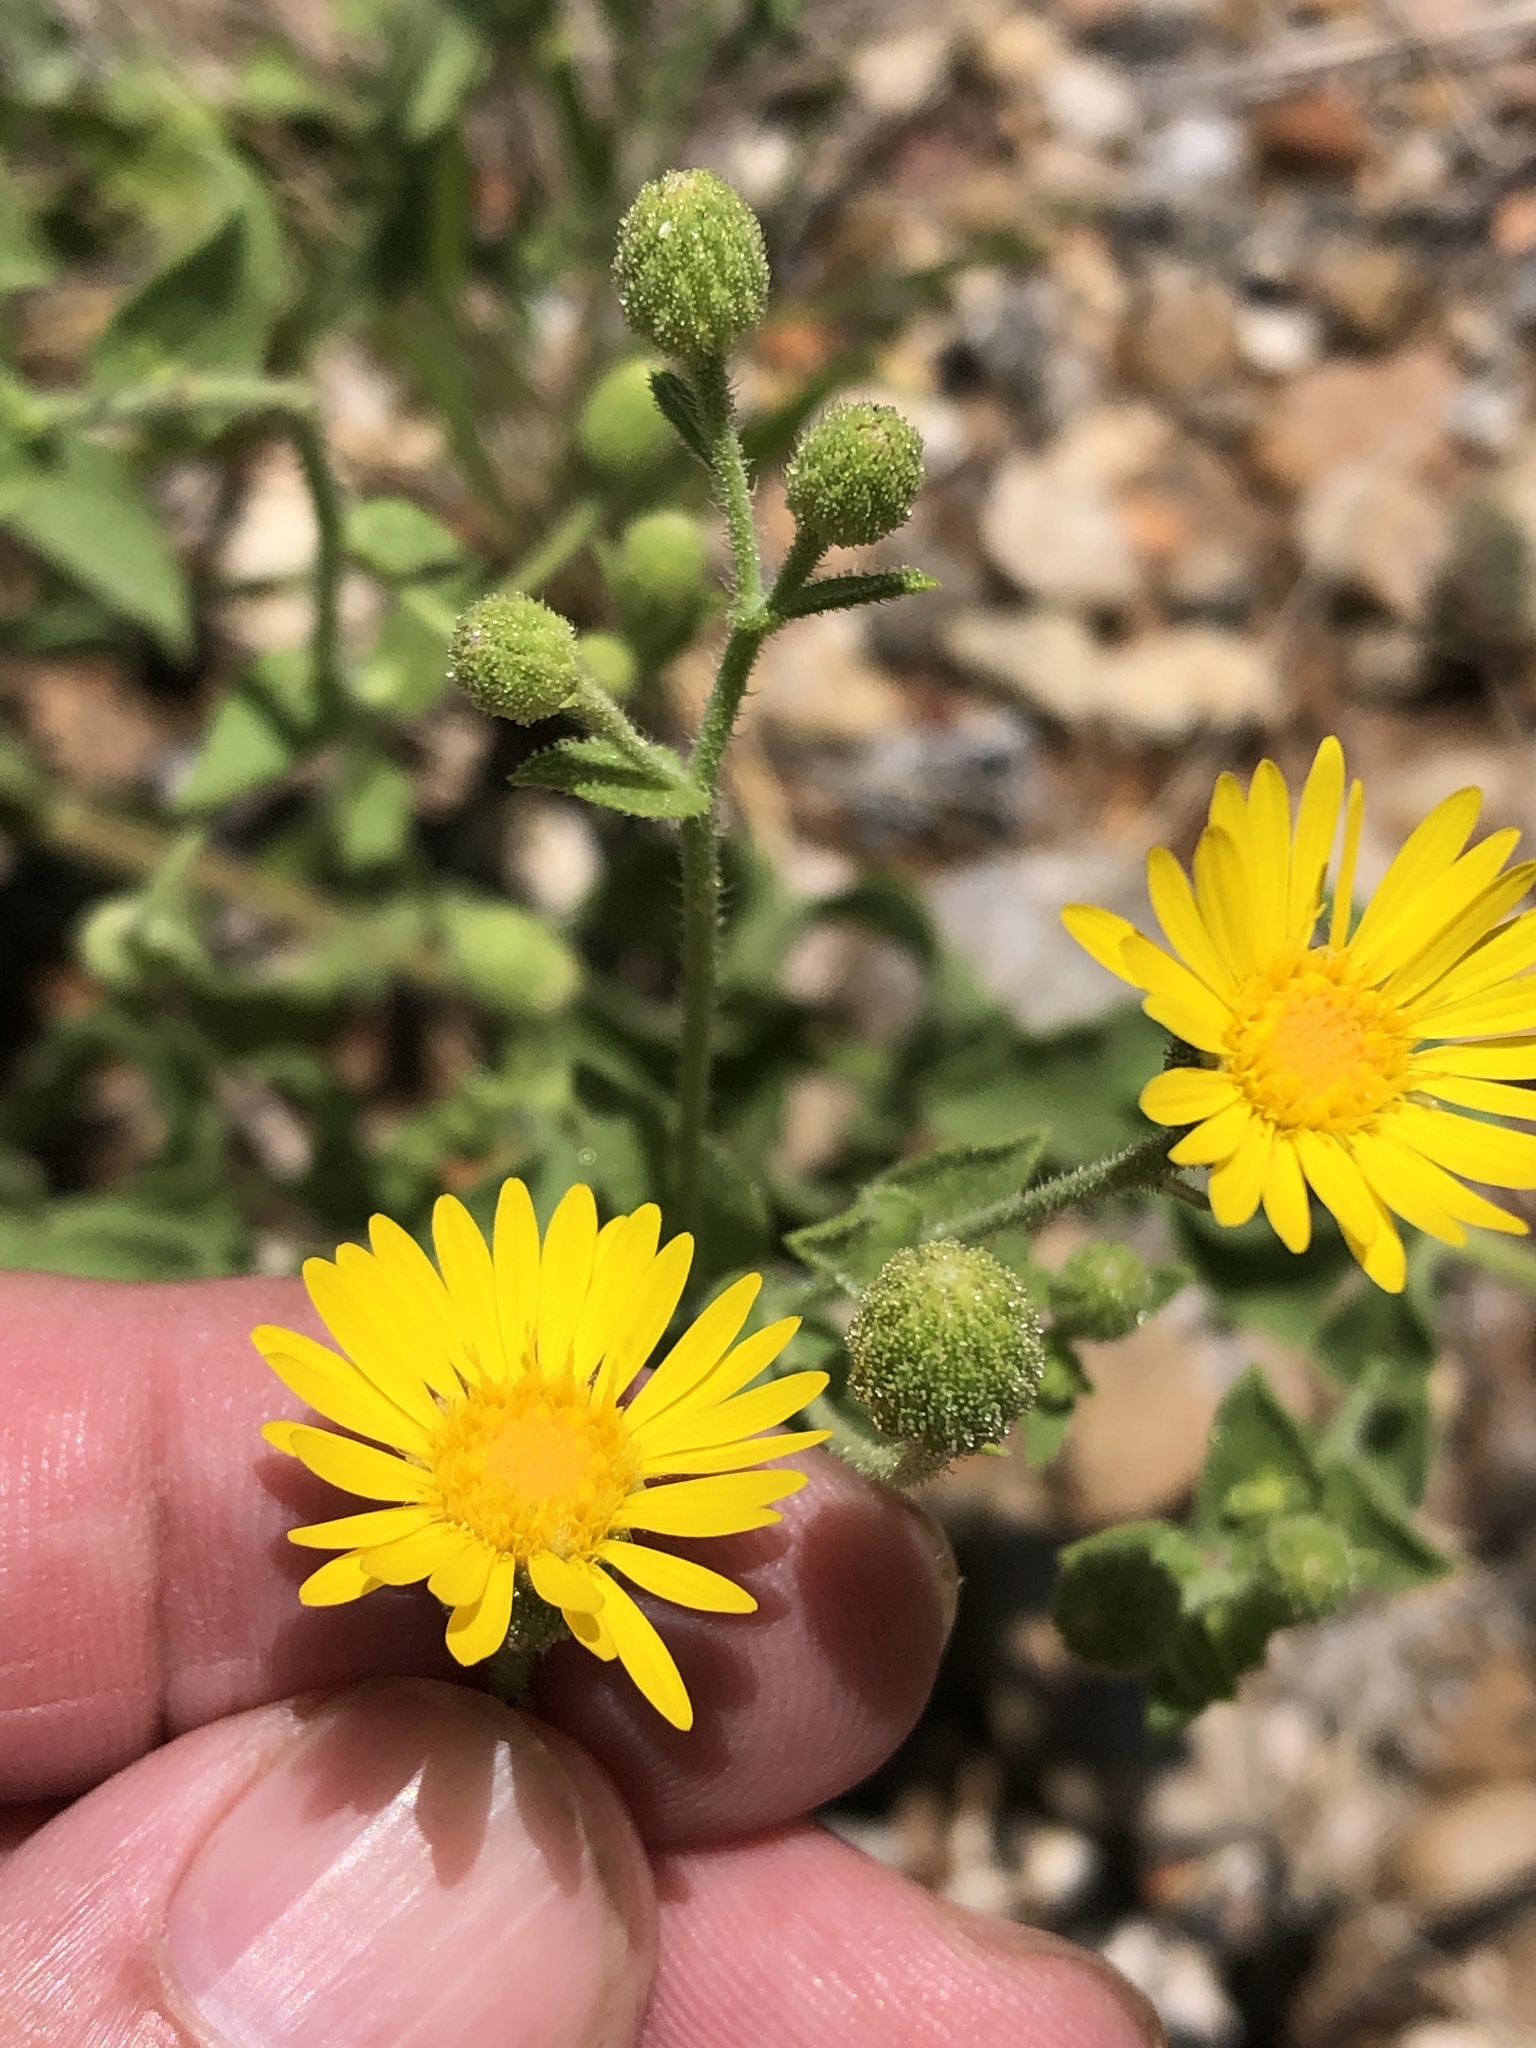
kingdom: Plantae
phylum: Tracheophyta
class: Magnoliopsida
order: Asterales
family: Asteraceae
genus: Heterotheca
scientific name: Heterotheca subaxillaris
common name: Camphorweed
